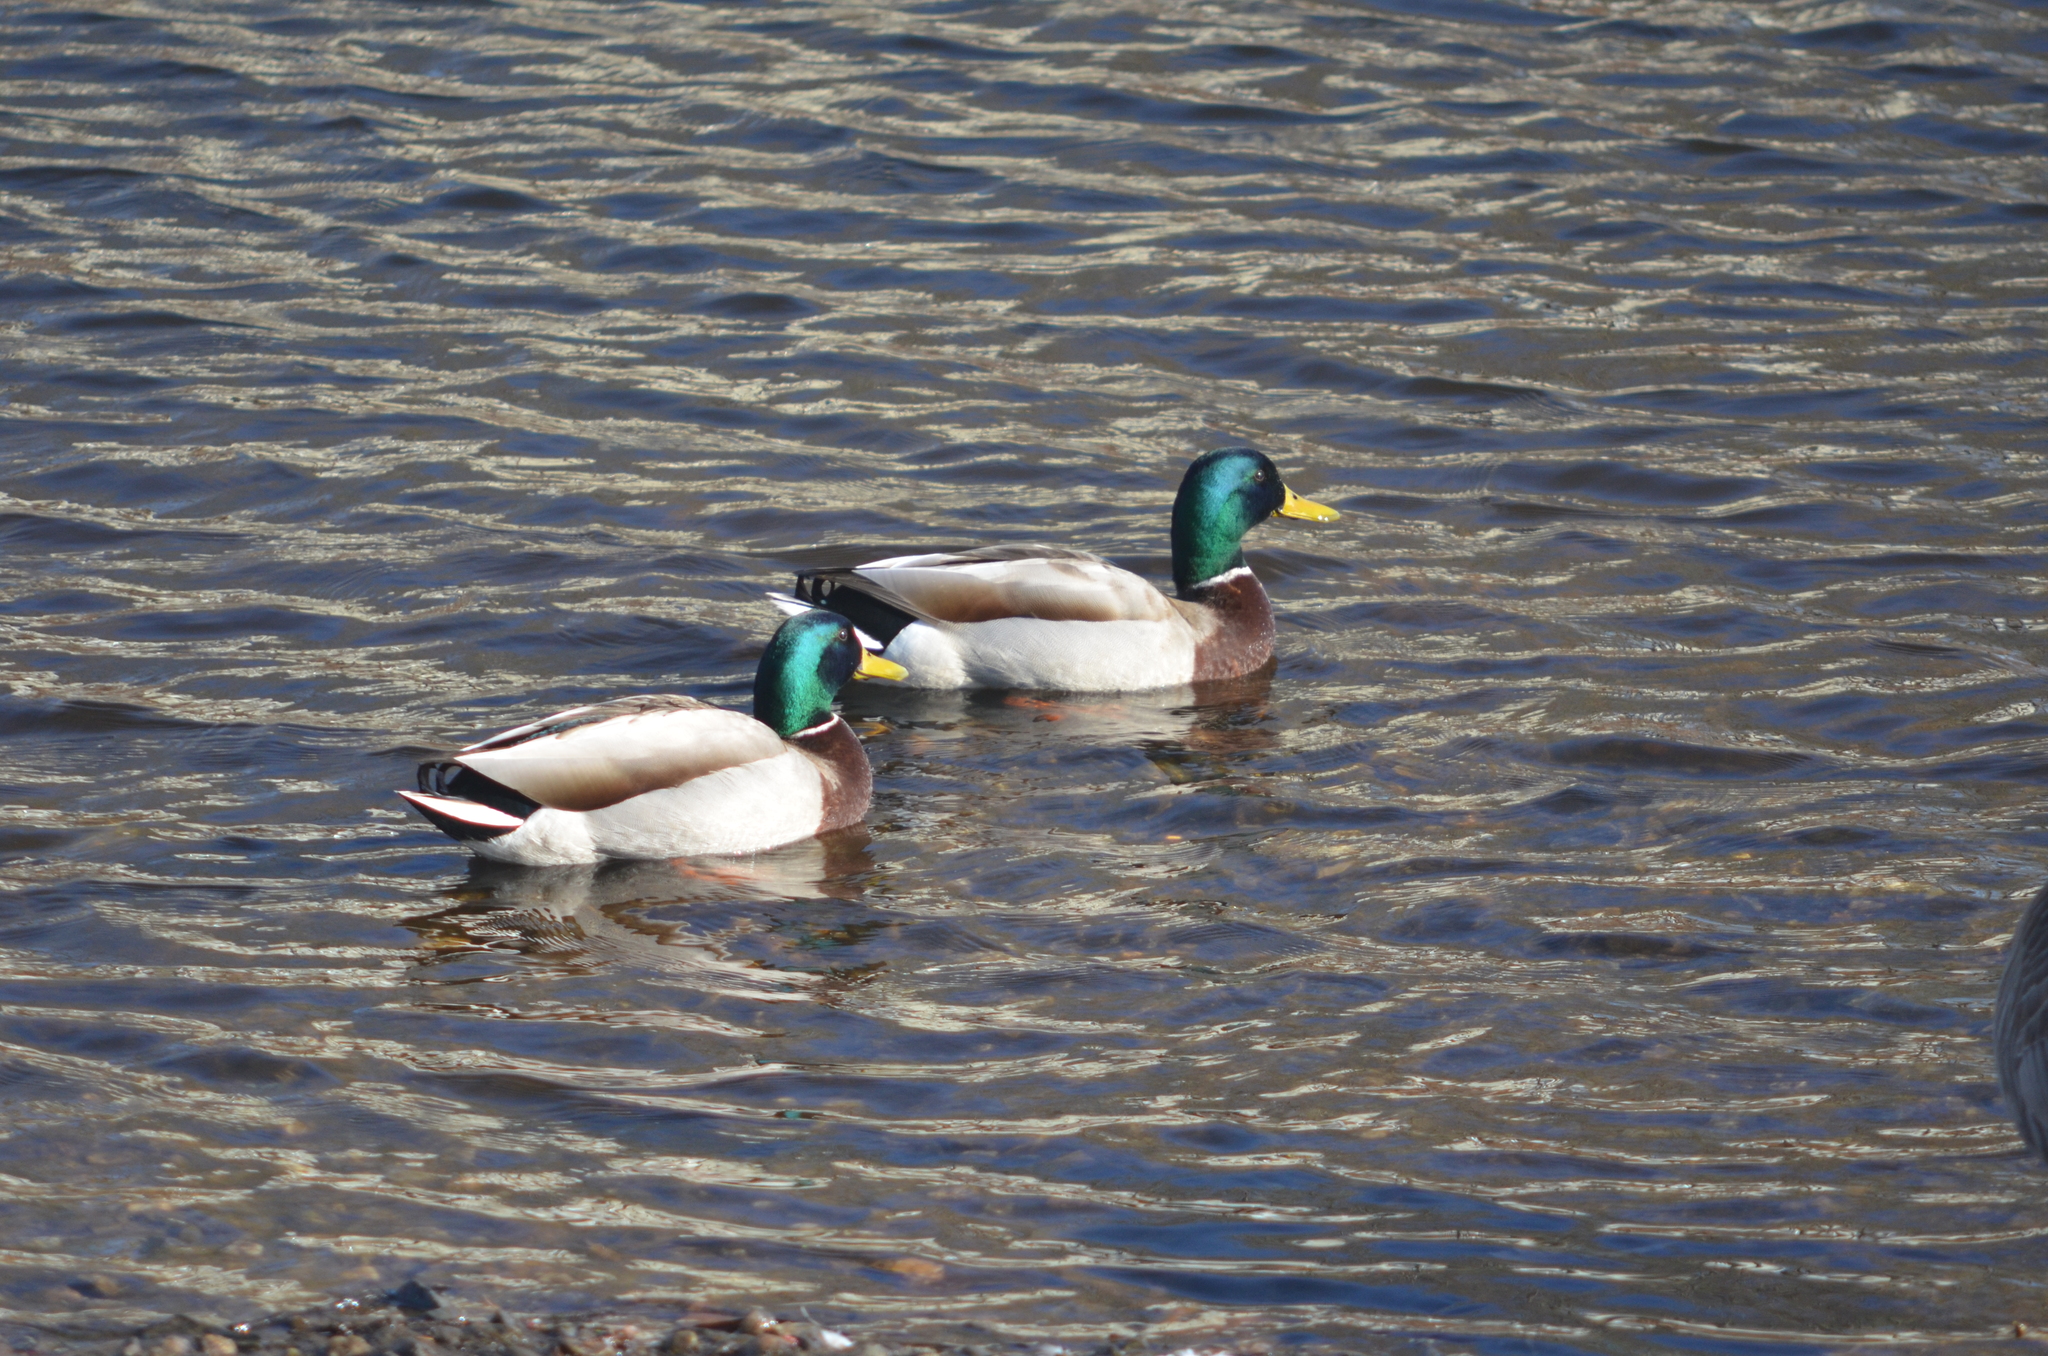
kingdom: Animalia
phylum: Chordata
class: Aves
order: Anseriformes
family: Anatidae
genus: Anas
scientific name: Anas platyrhynchos
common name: Mallard
